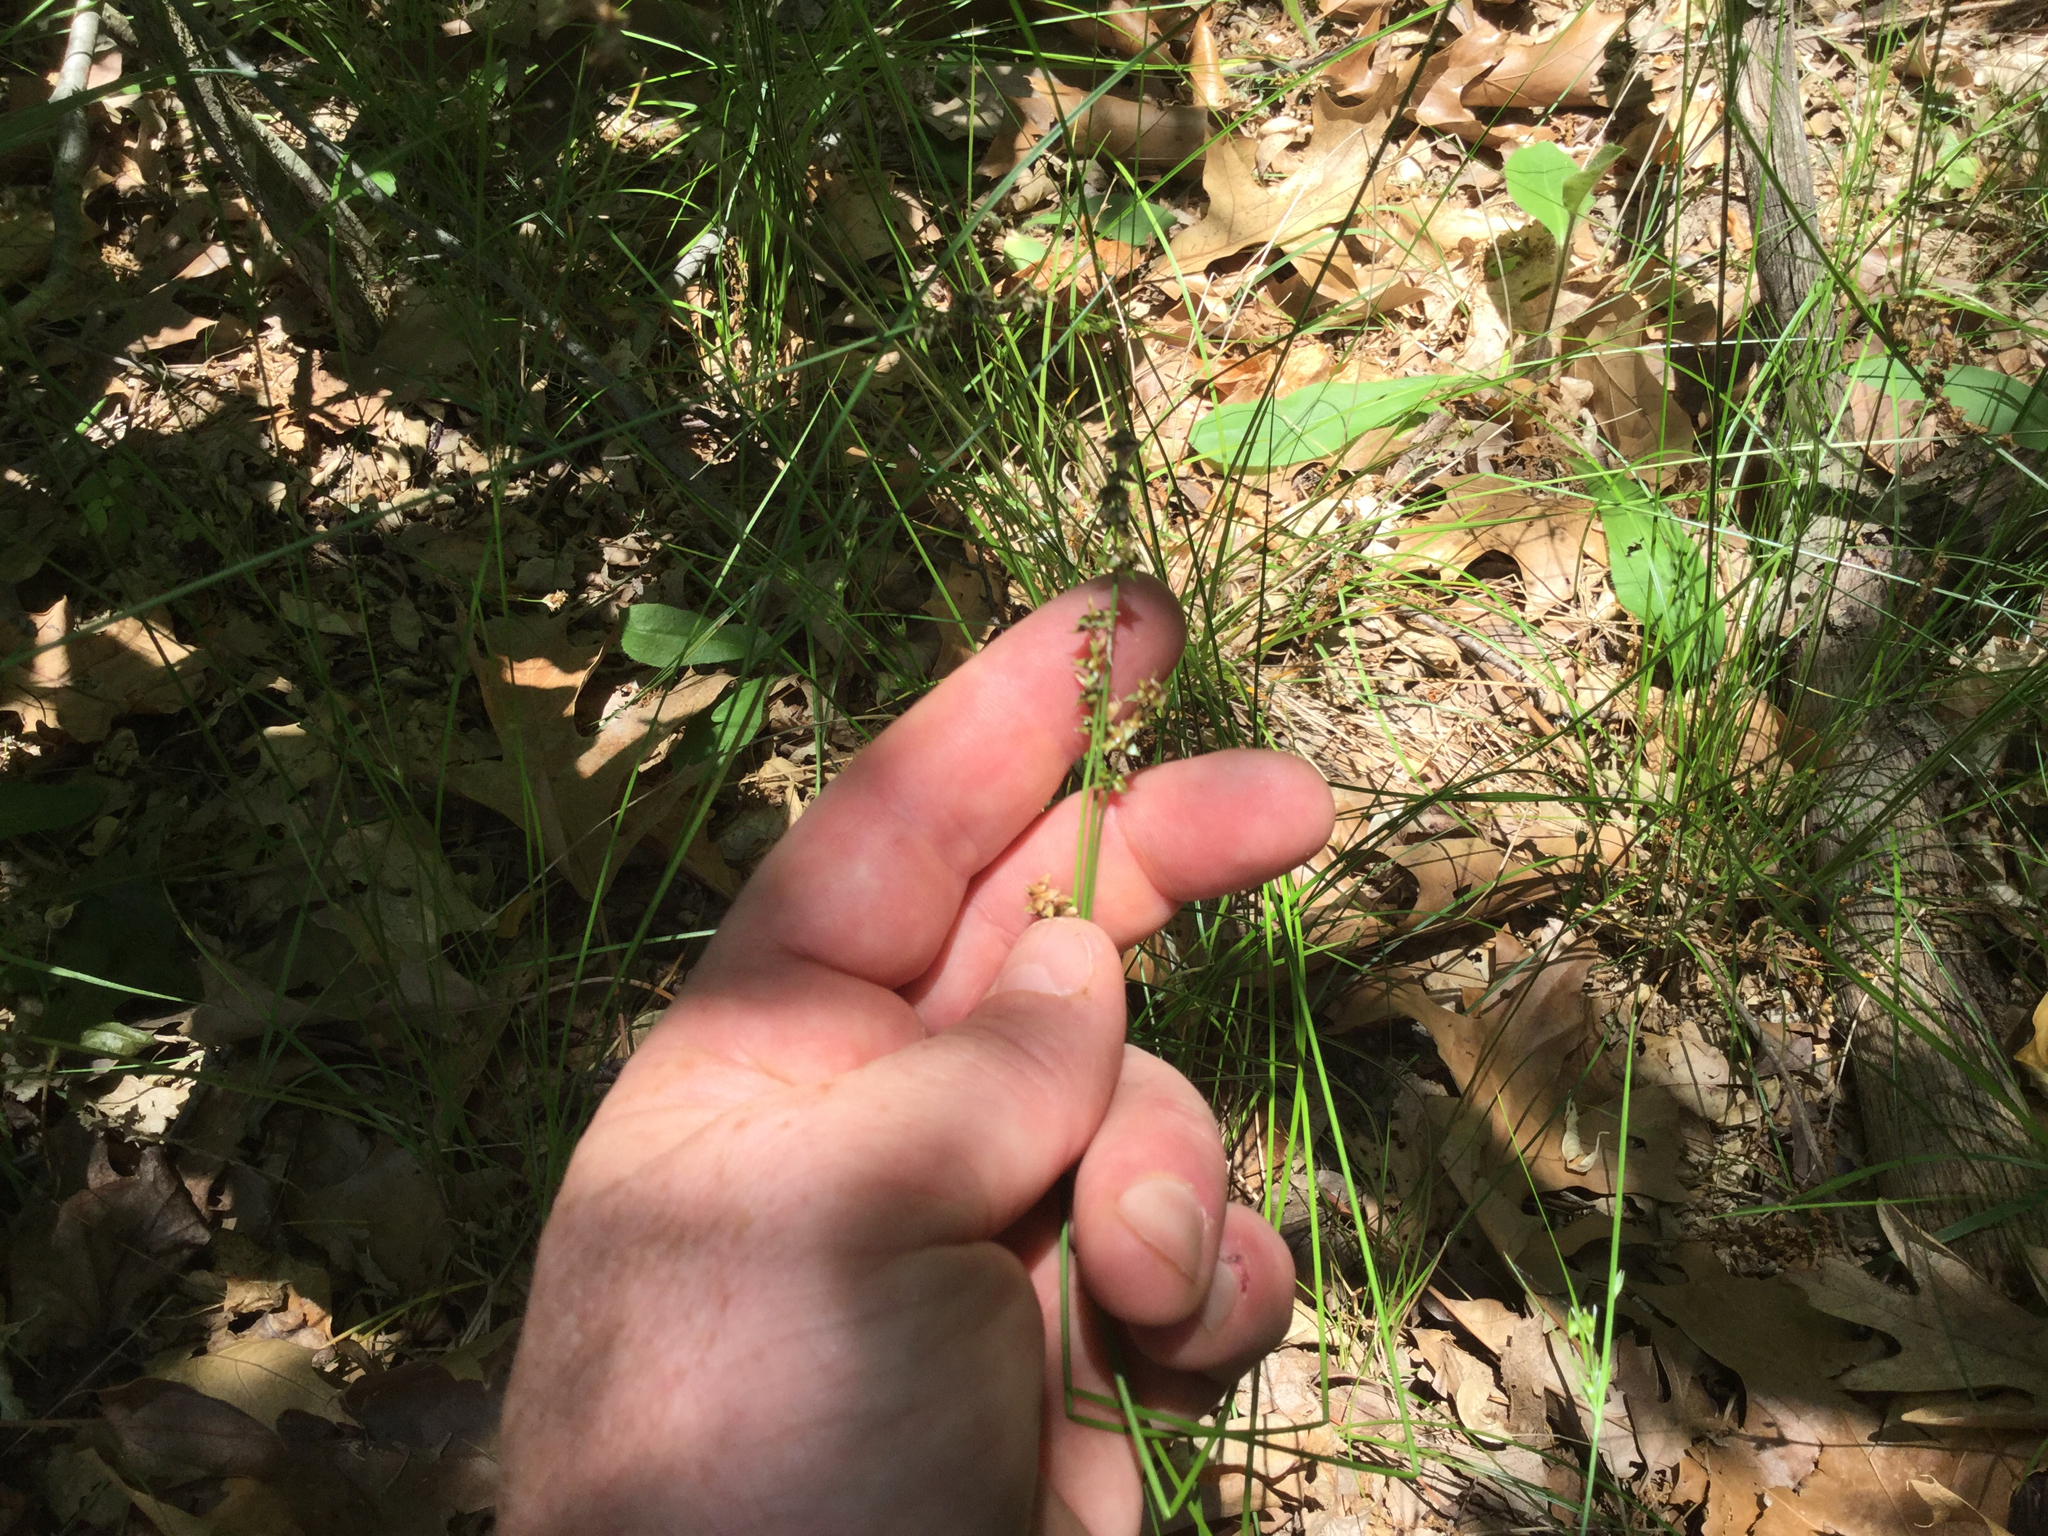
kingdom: Plantae
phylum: Tracheophyta
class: Liliopsida
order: Poales
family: Cyperaceae
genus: Carex
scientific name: Carex retroflexa
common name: Reflexed sedge
